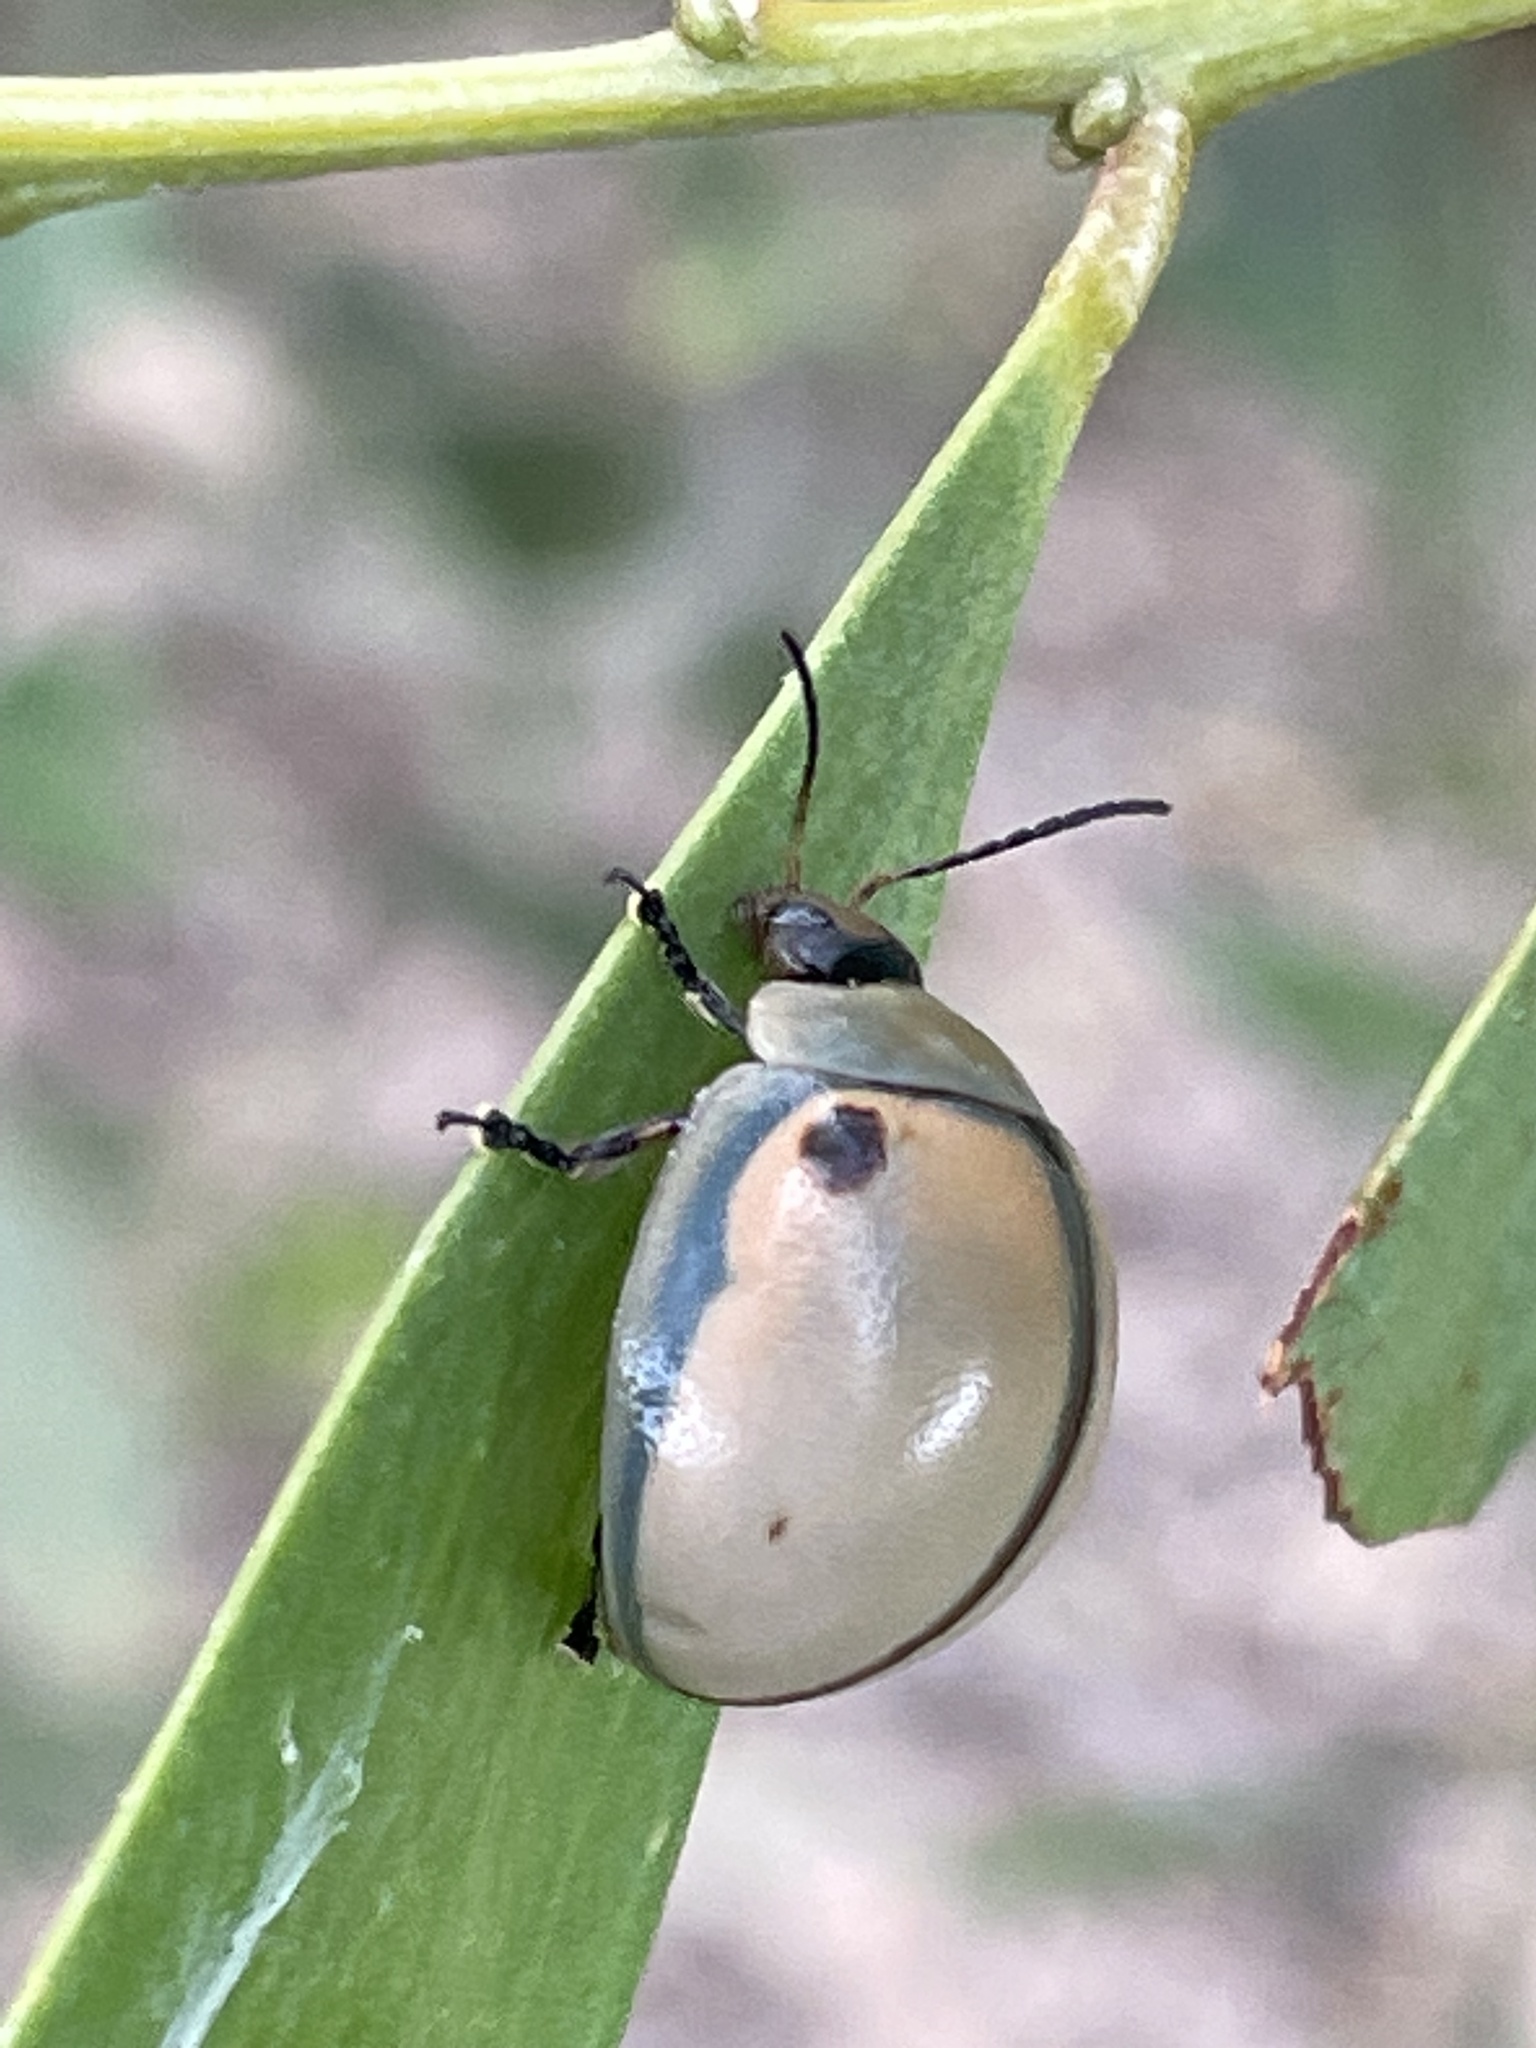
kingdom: Animalia
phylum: Arthropoda
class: Insecta
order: Coleoptera
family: Chrysomelidae
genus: Dicranosterna
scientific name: Dicranosterna
